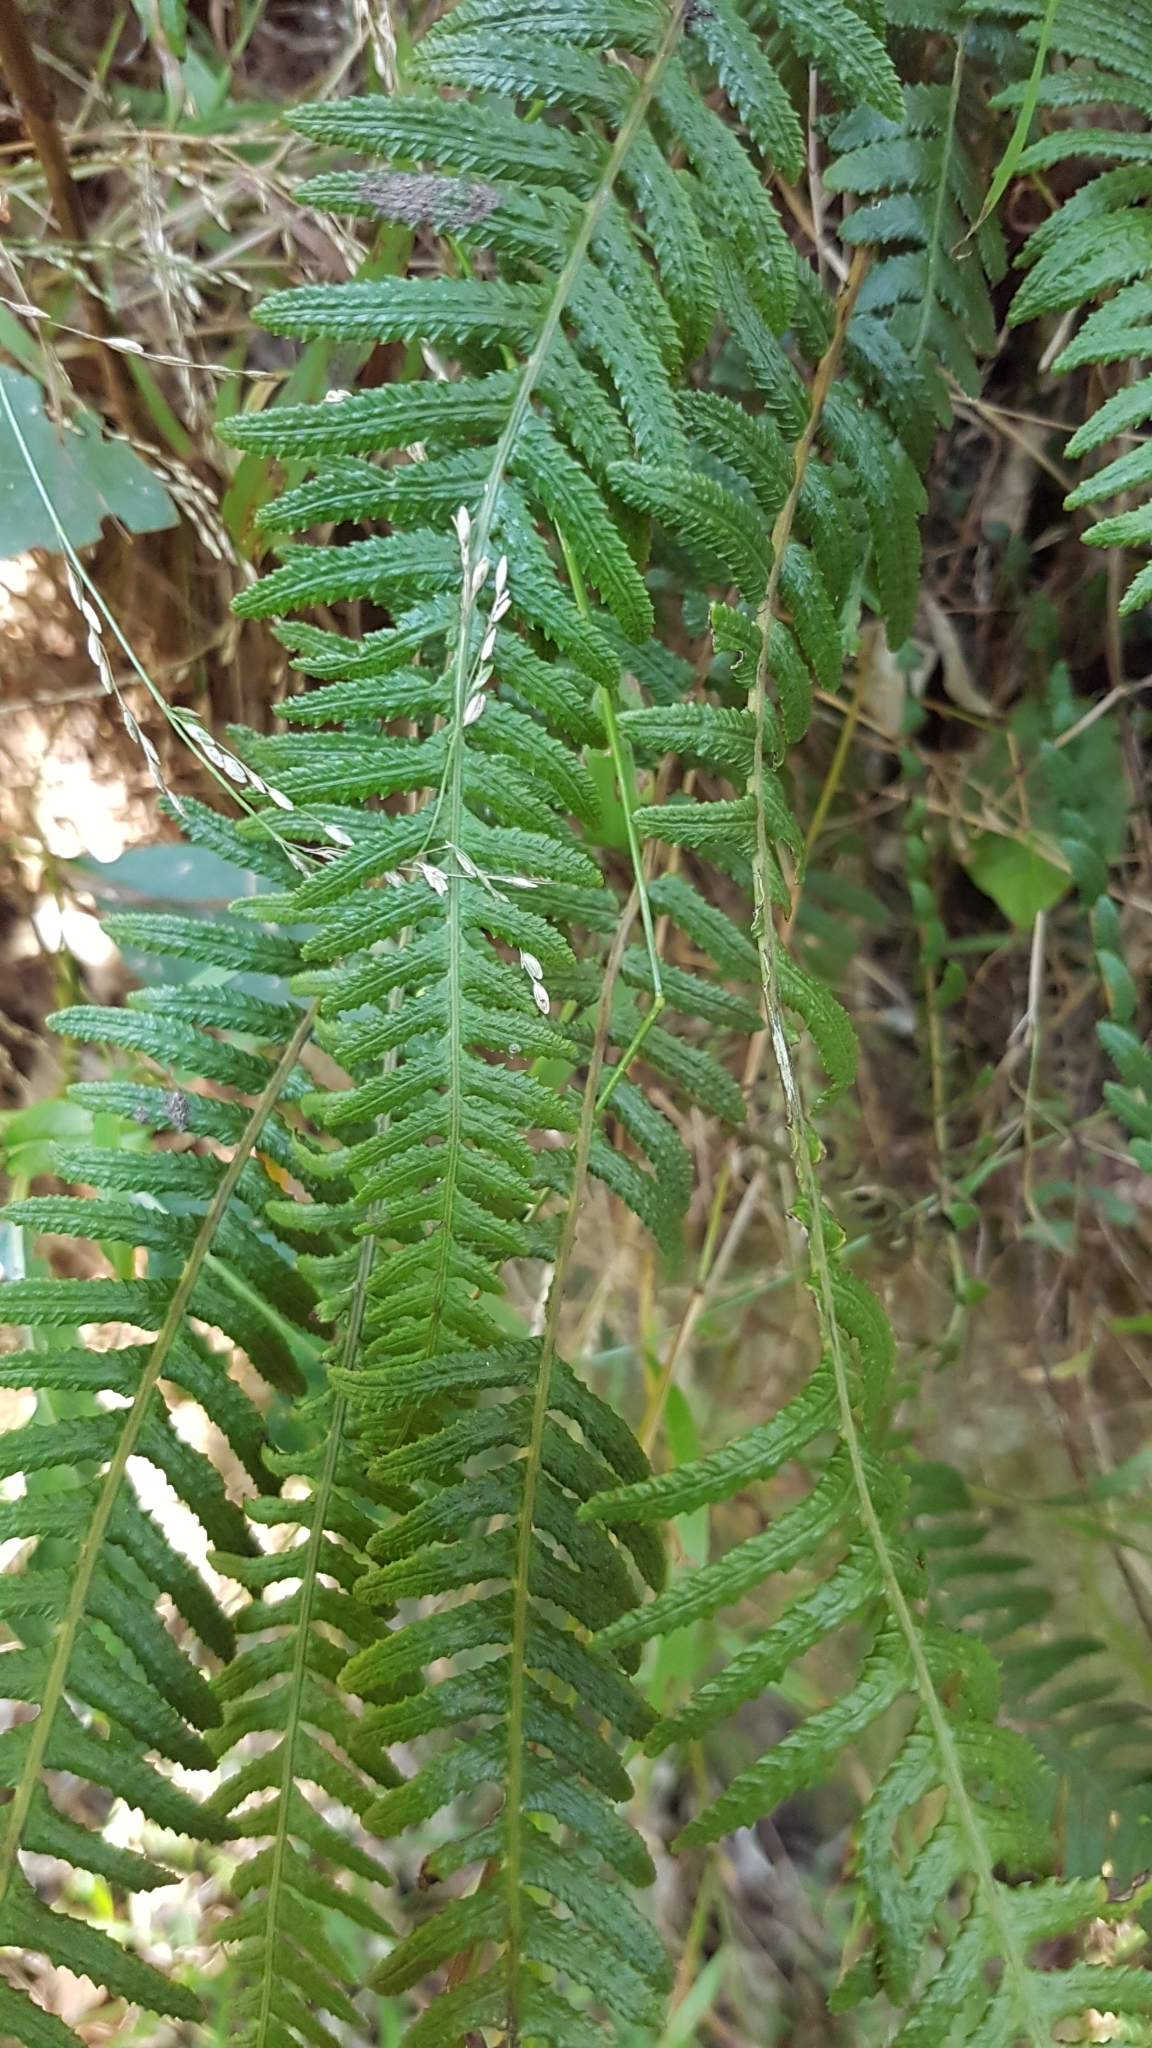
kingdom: Plantae
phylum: Tracheophyta
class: Polypodiopsida
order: Polypodiales
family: Blechnaceae
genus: Doodia
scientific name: Doodia australis
